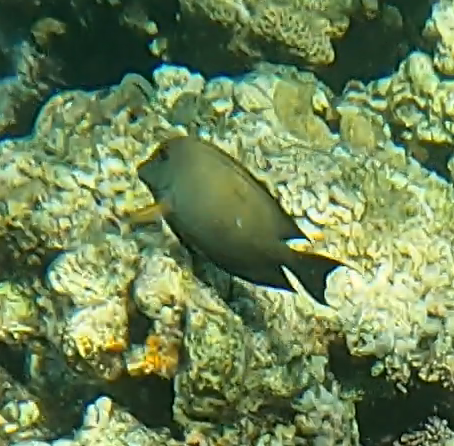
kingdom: Animalia
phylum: Chordata
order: Perciformes
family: Acanthuridae
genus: Ctenochaetus
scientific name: Ctenochaetus striatus
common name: Bristle-toothed surgeonfish
